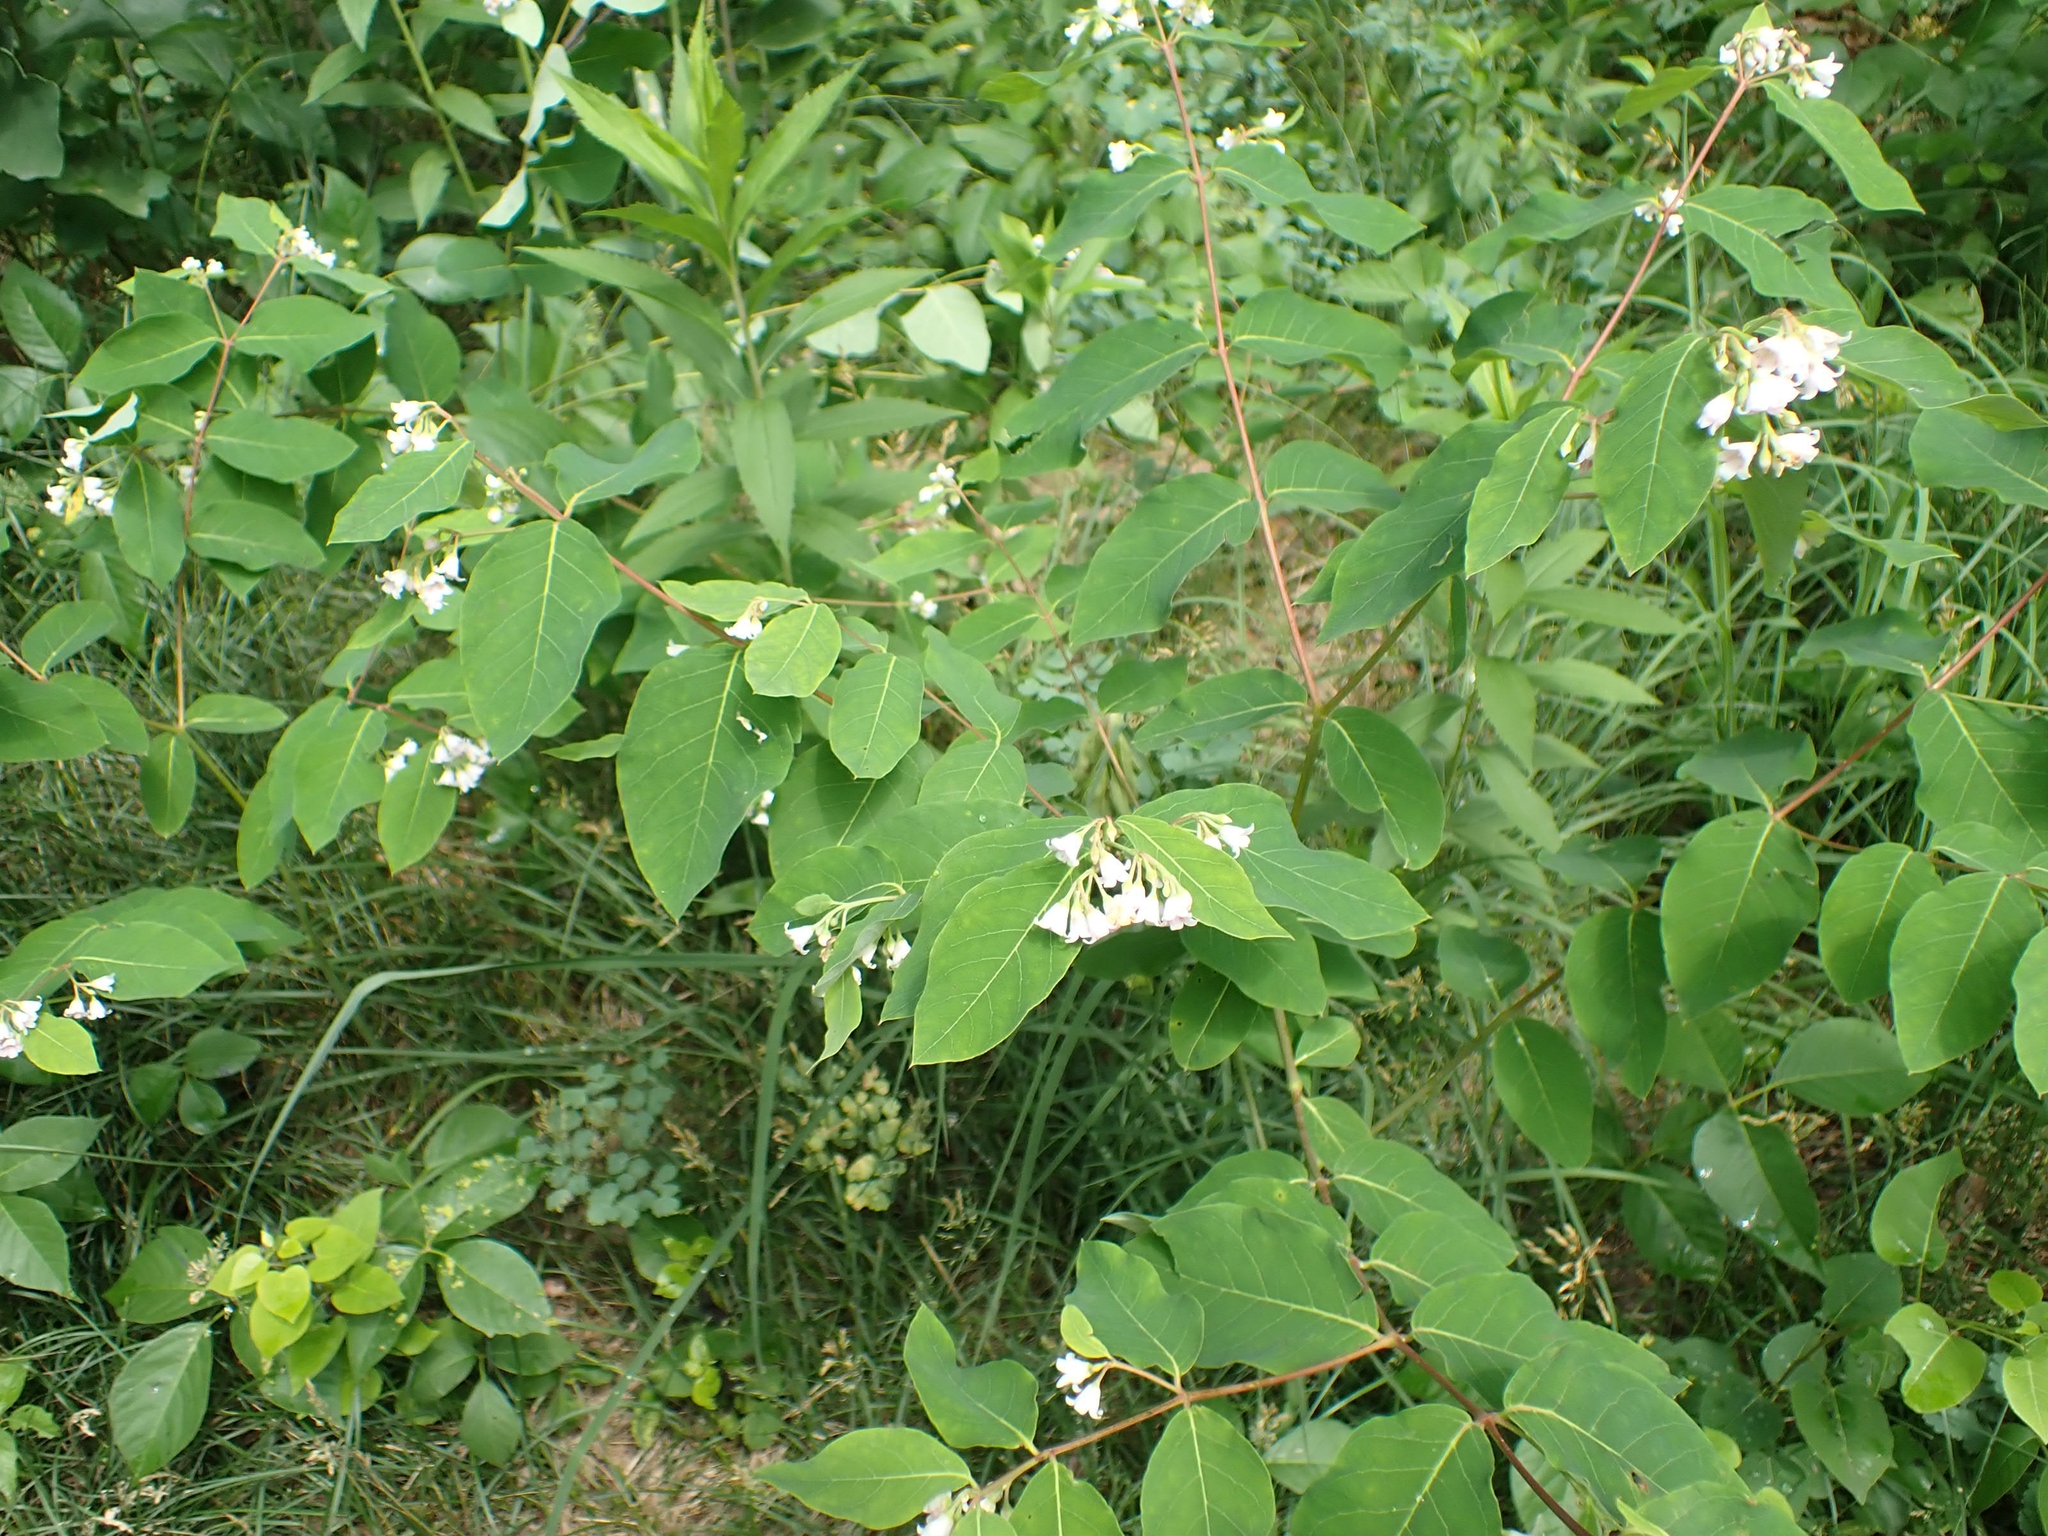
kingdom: Plantae
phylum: Tracheophyta
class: Magnoliopsida
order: Gentianales
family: Apocynaceae
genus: Apocynum
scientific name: Apocynum androsaemifolium
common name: Spreading dogbane
